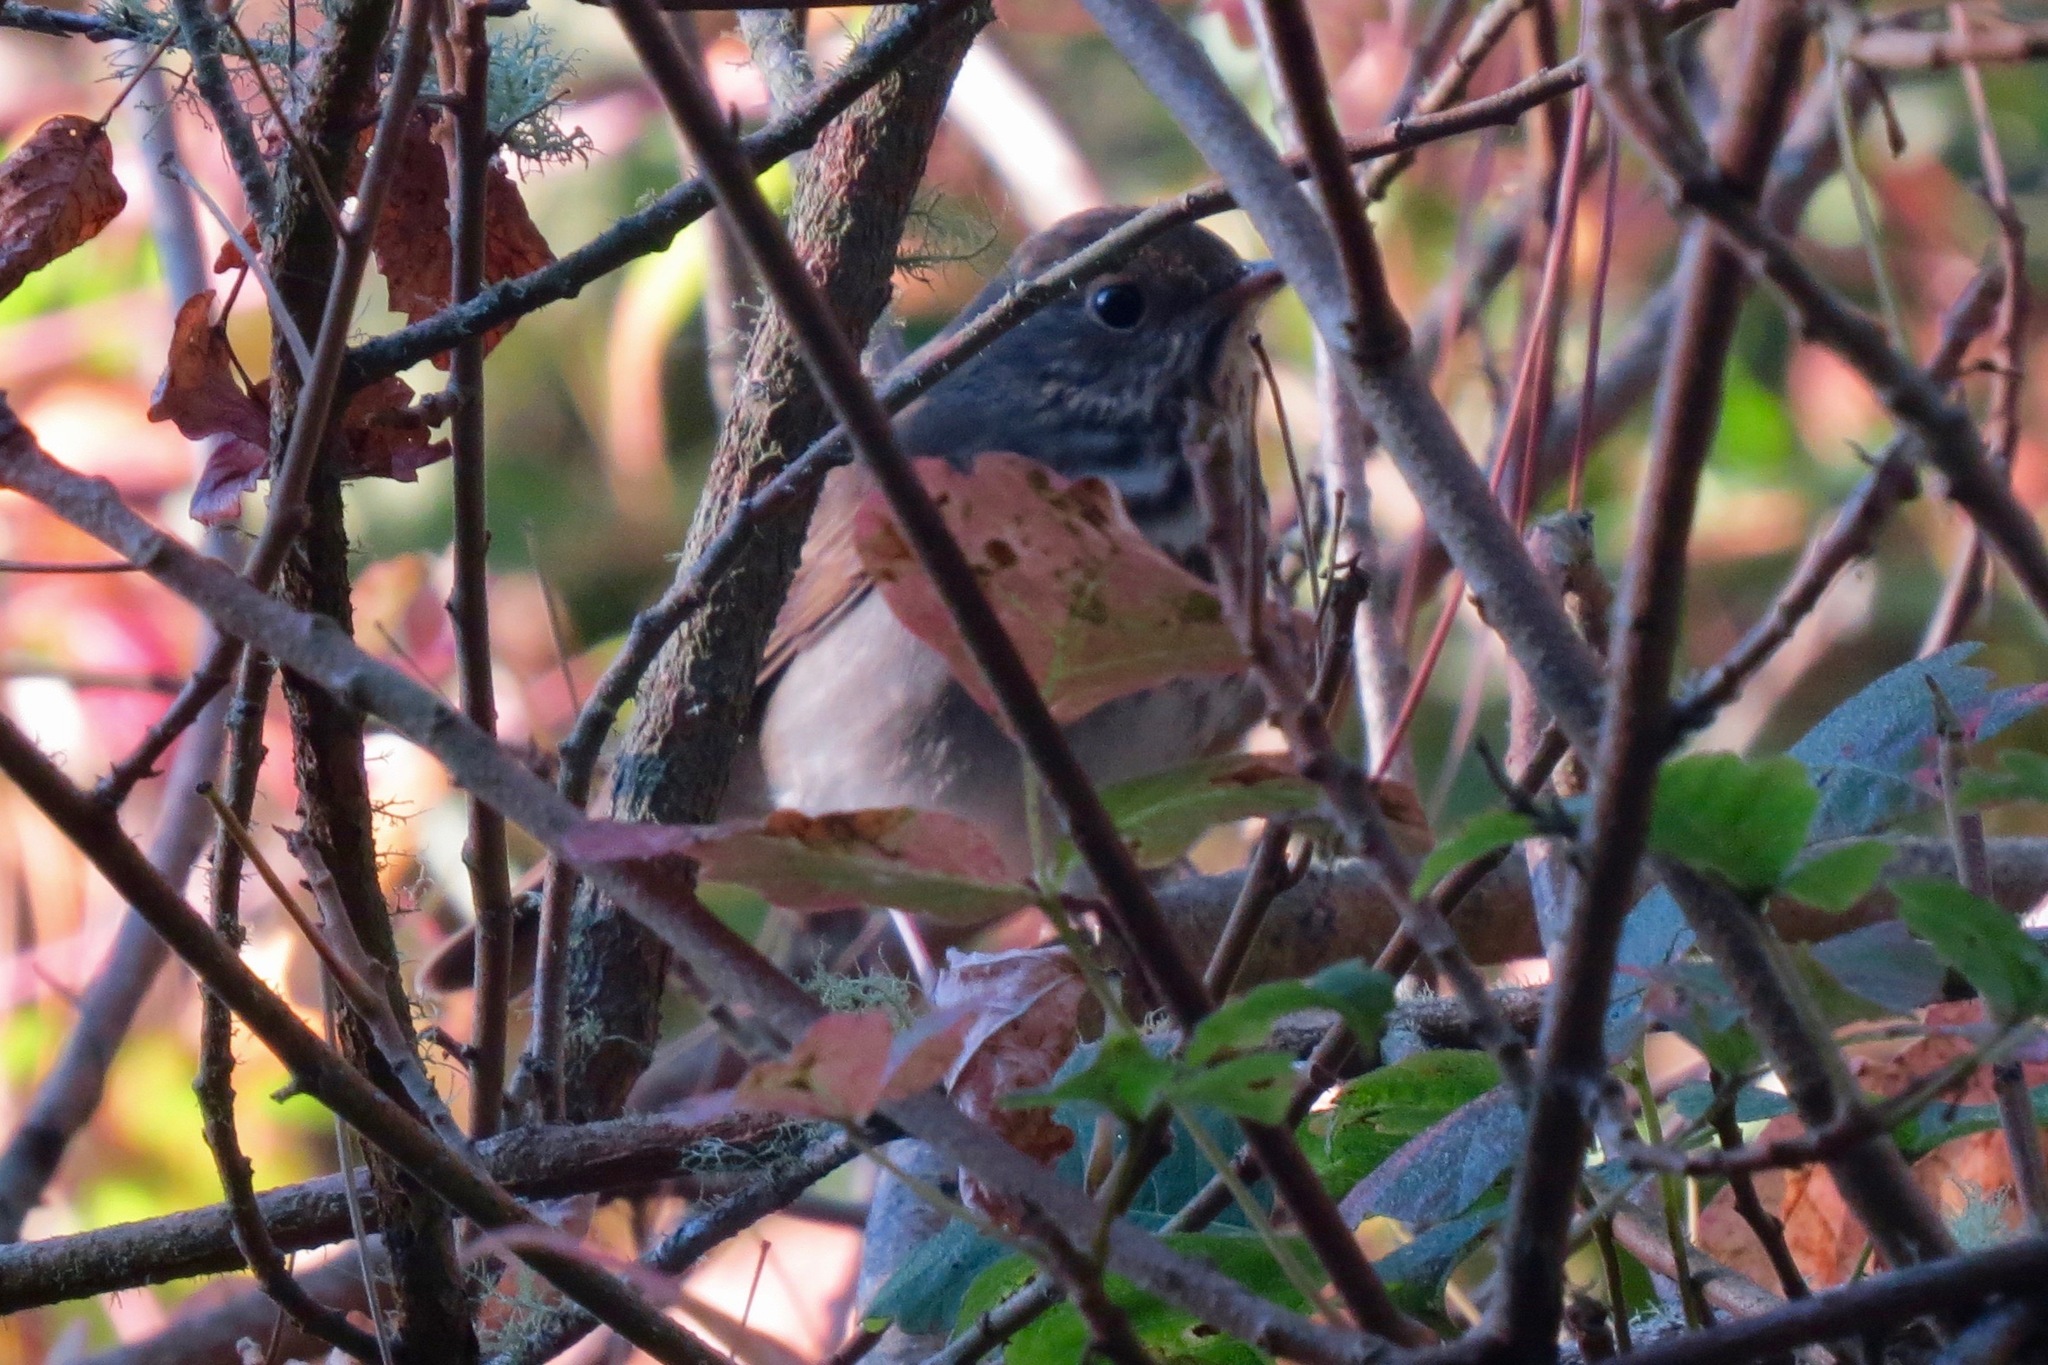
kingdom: Animalia
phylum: Chordata
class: Aves
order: Passeriformes
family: Turdidae
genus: Catharus
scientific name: Catharus guttatus
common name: Hermit thrush
